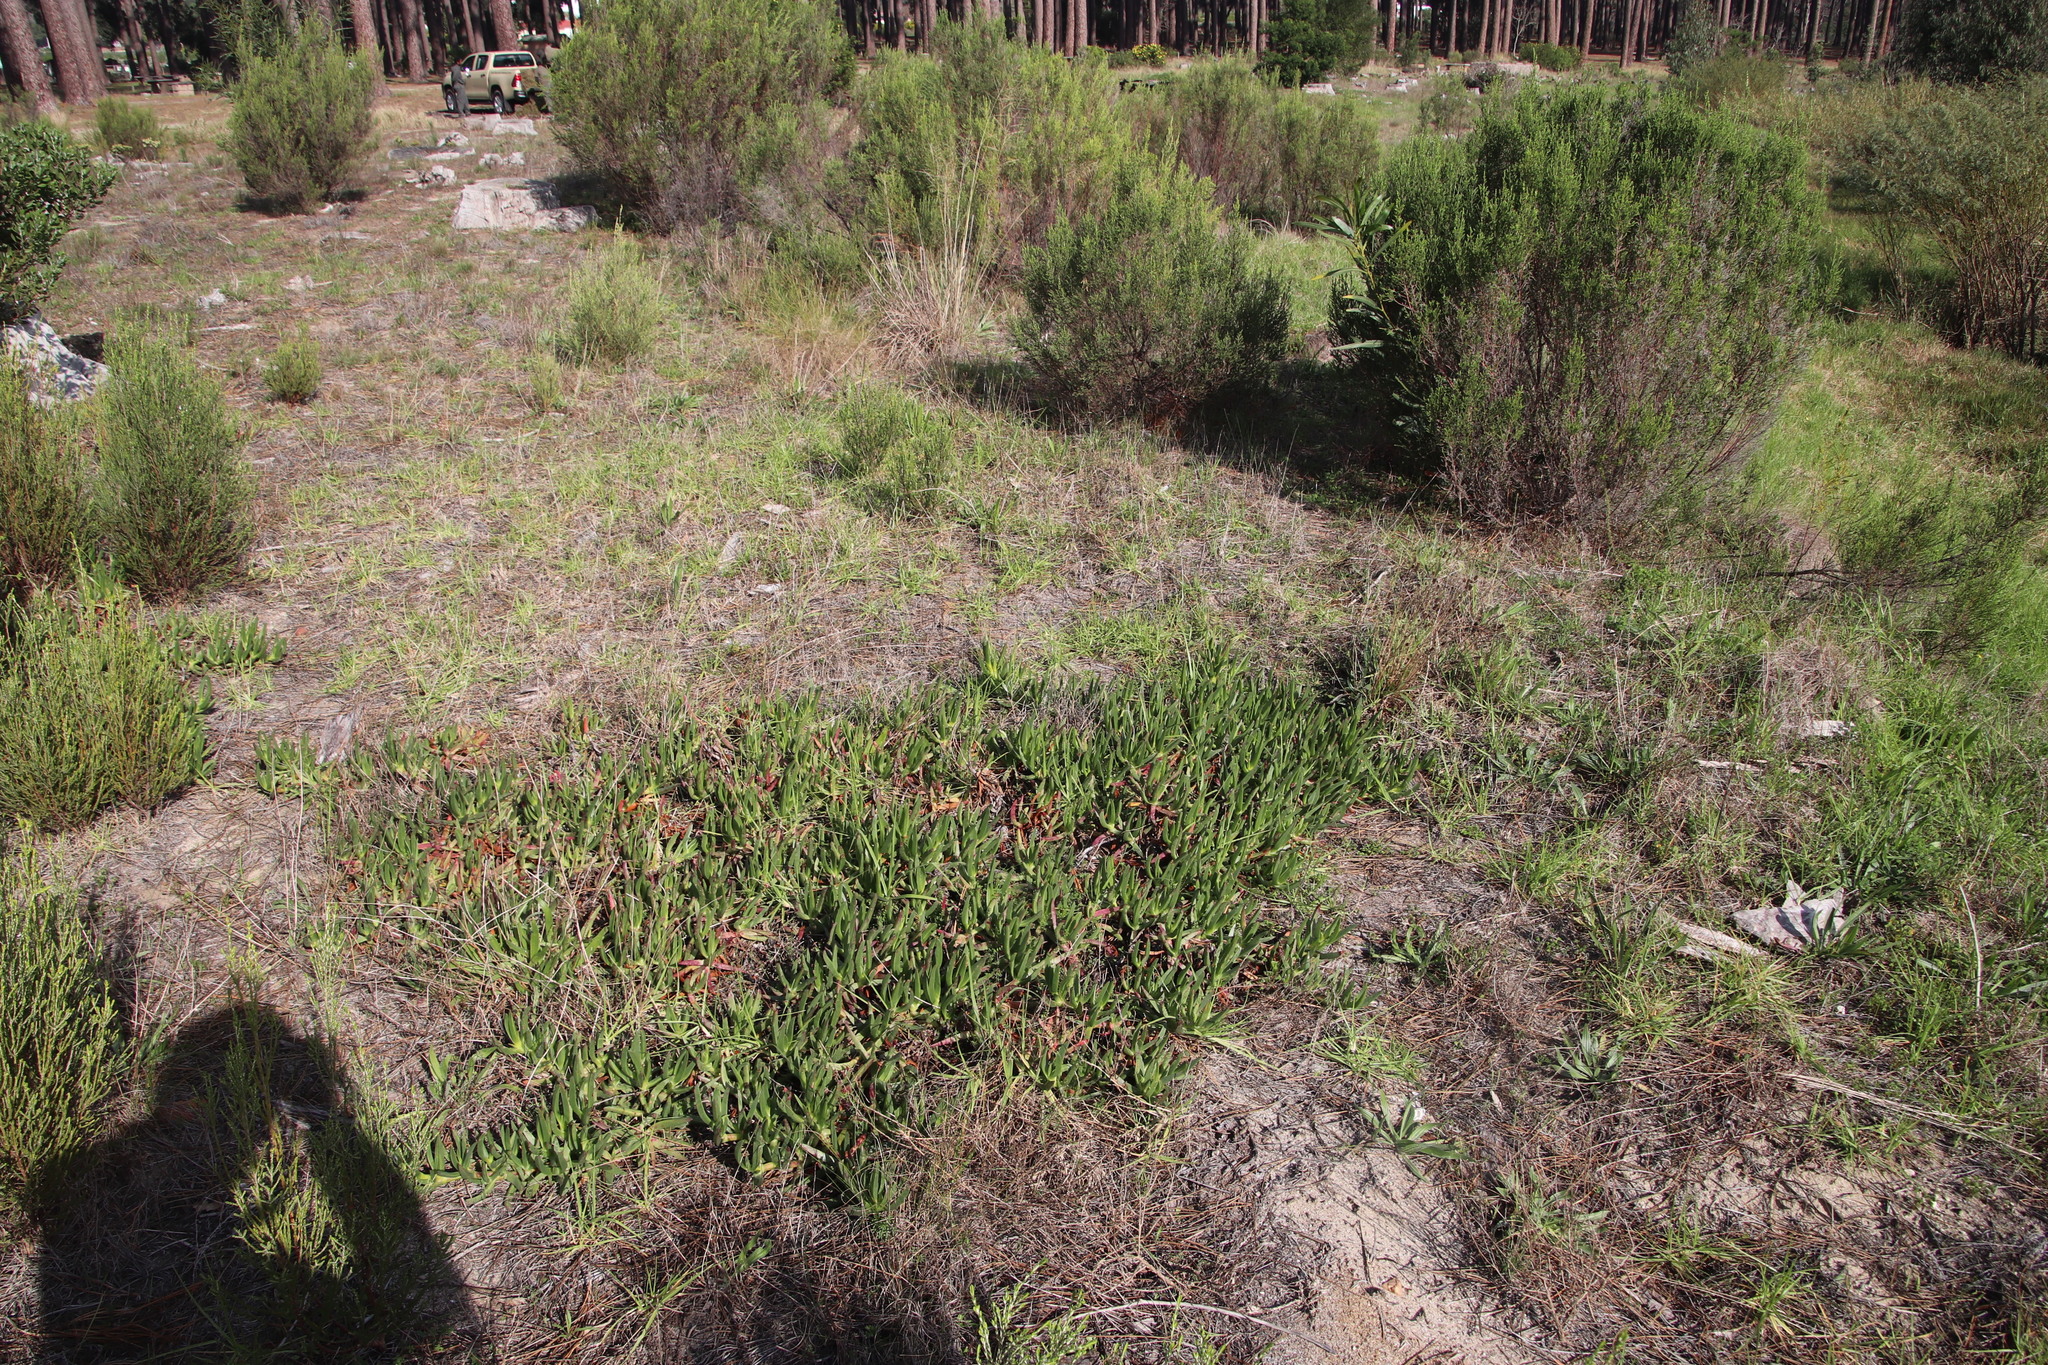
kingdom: Plantae
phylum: Tracheophyta
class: Magnoliopsida
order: Caryophyllales
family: Aizoaceae
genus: Carpobrotus
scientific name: Carpobrotus edulis
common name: Hottentot-fig
